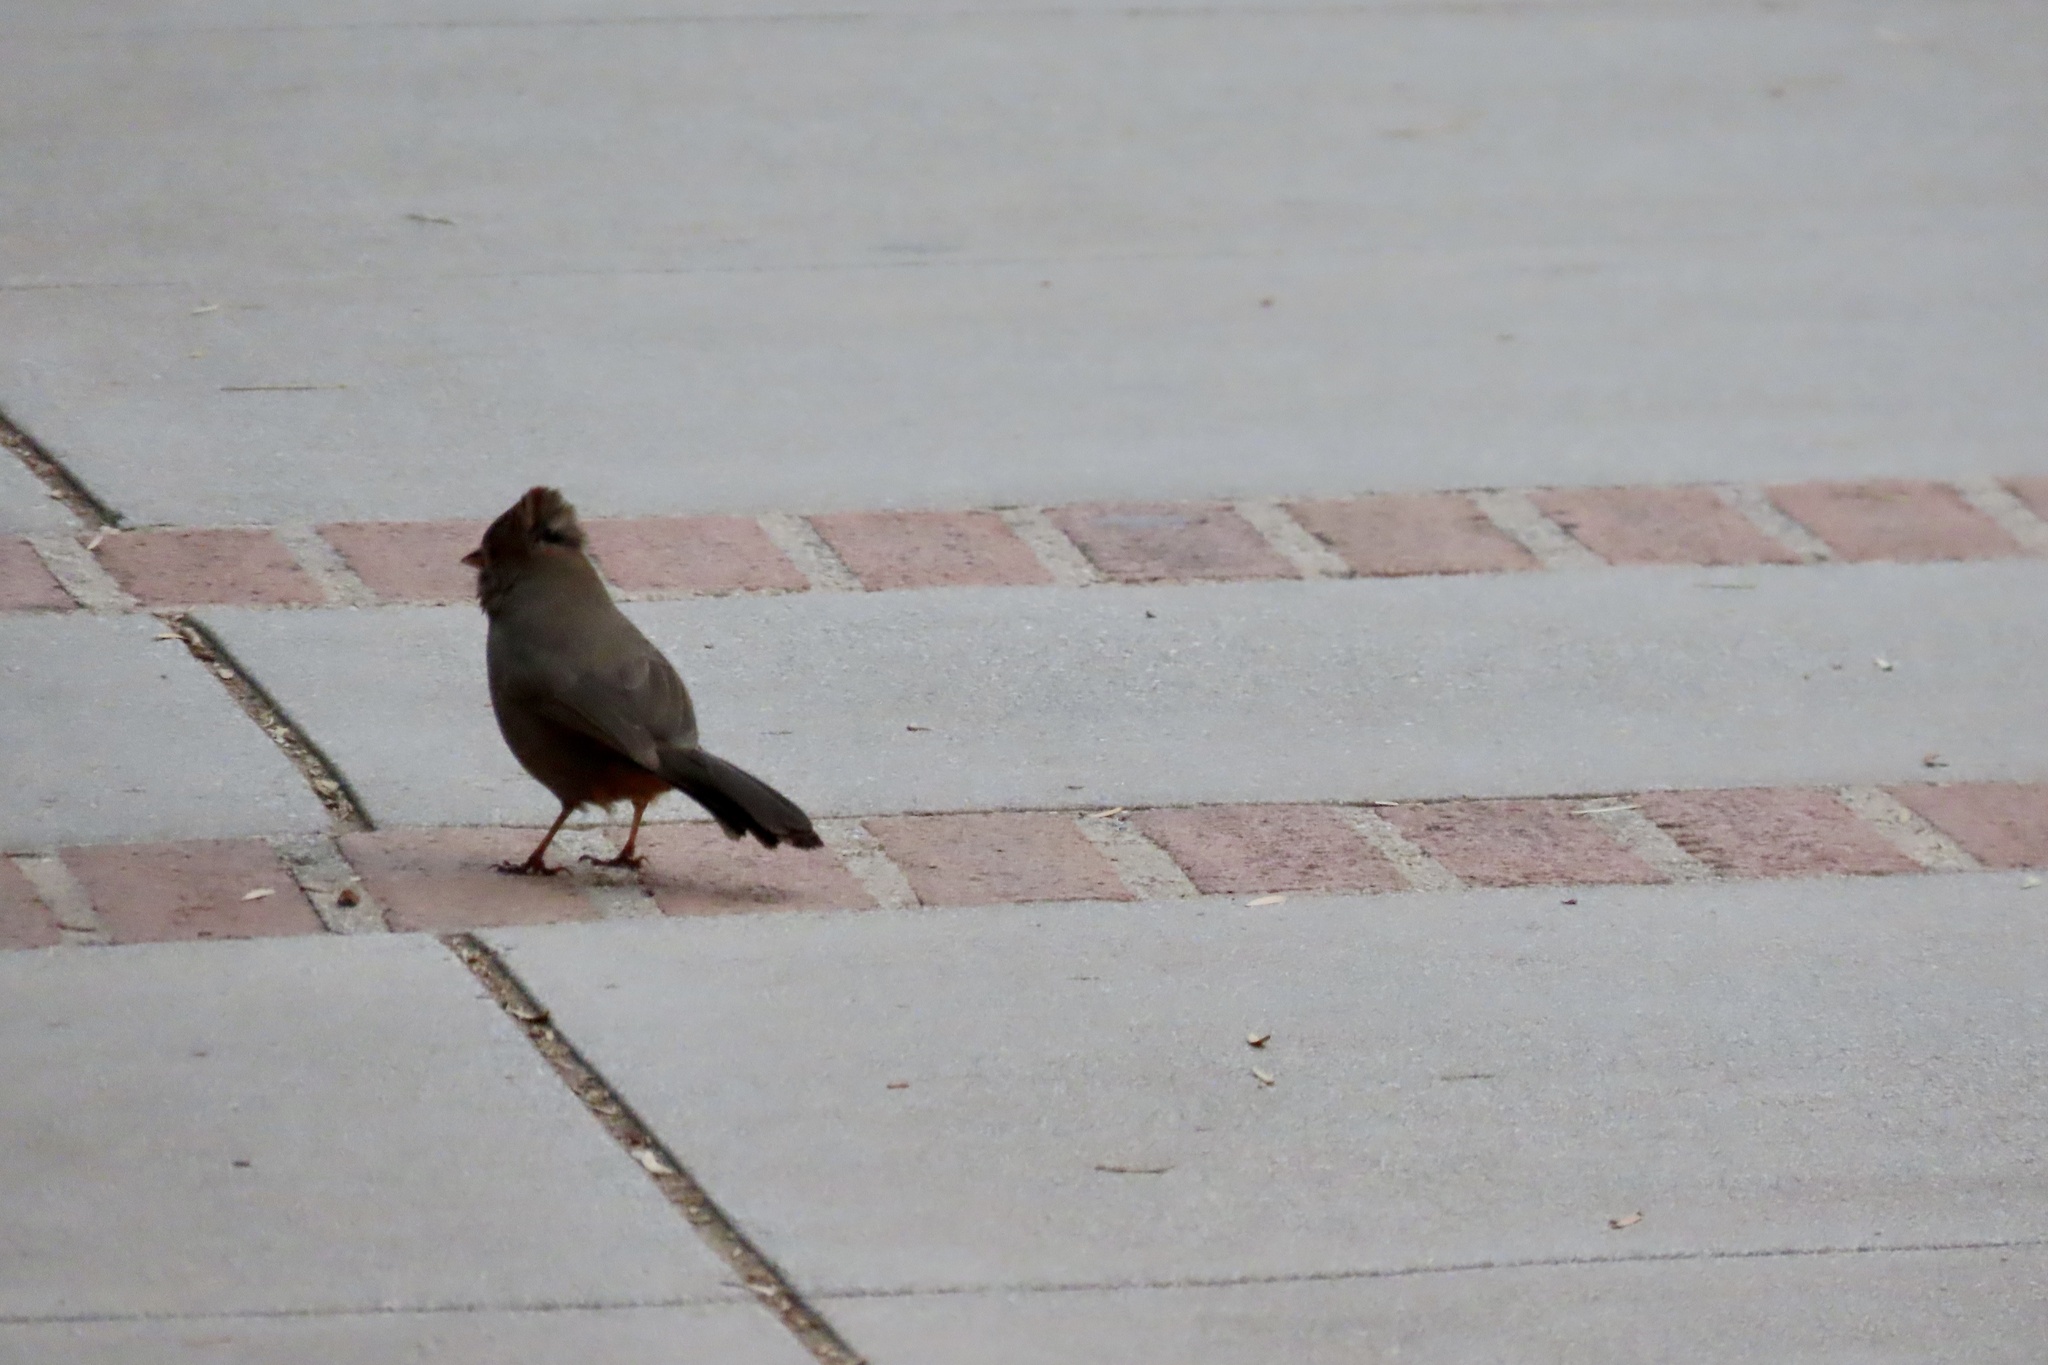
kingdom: Animalia
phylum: Chordata
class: Aves
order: Passeriformes
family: Passerellidae
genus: Melozone
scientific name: Melozone crissalis
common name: California towhee
